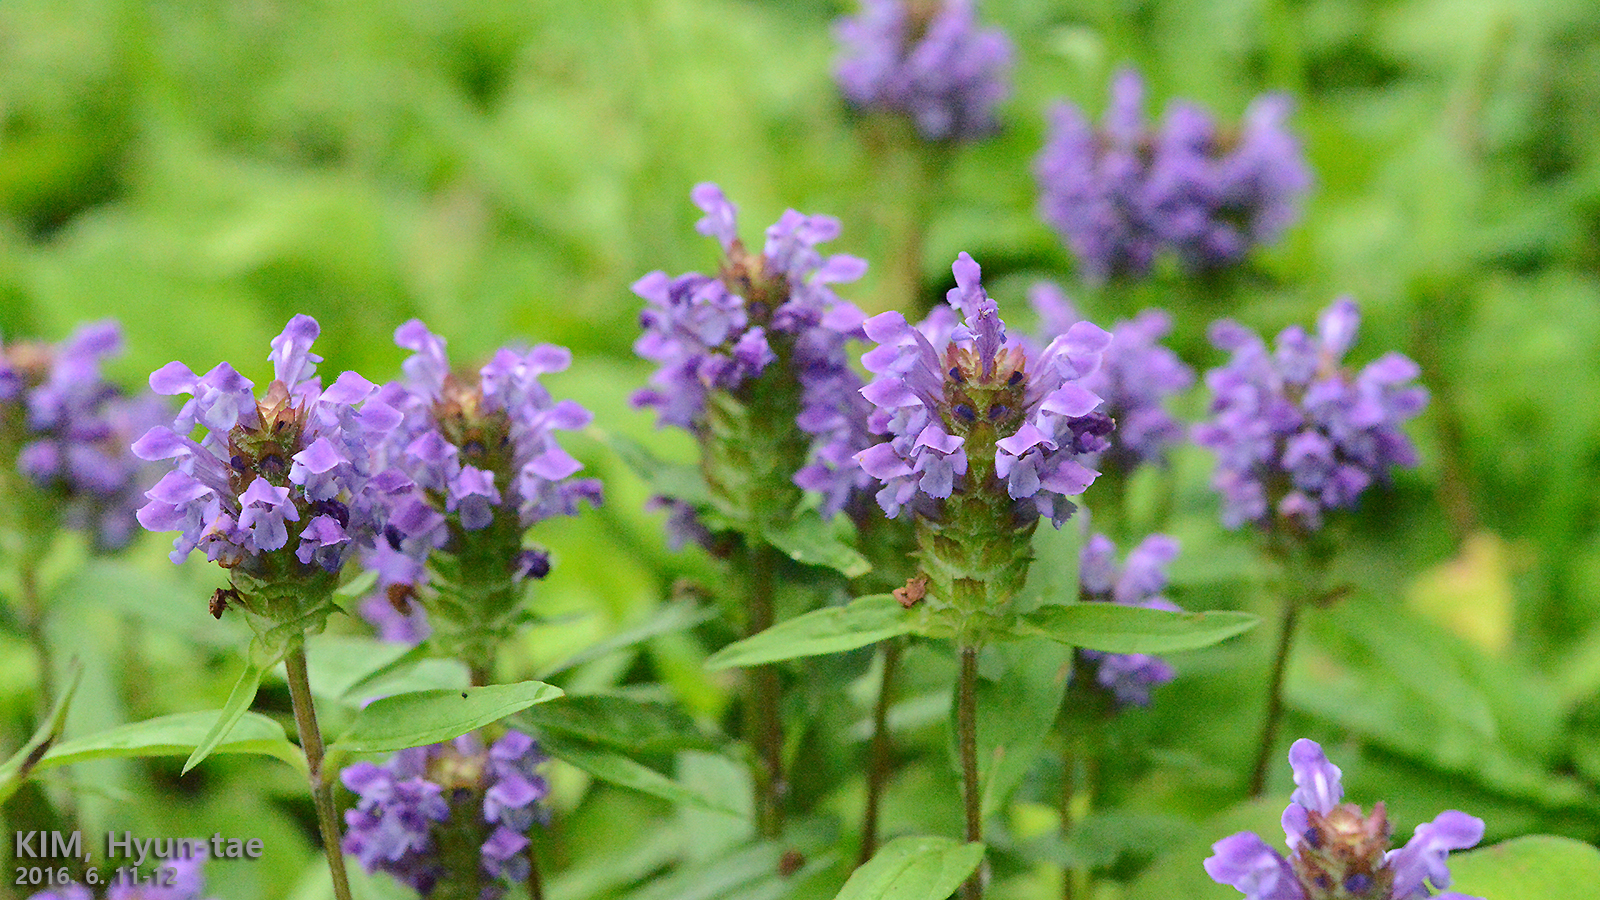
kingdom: Plantae
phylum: Tracheophyta
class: Magnoliopsida
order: Lamiales
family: Lamiaceae
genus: Prunella
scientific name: Prunella vulgaris
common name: Heal-all
